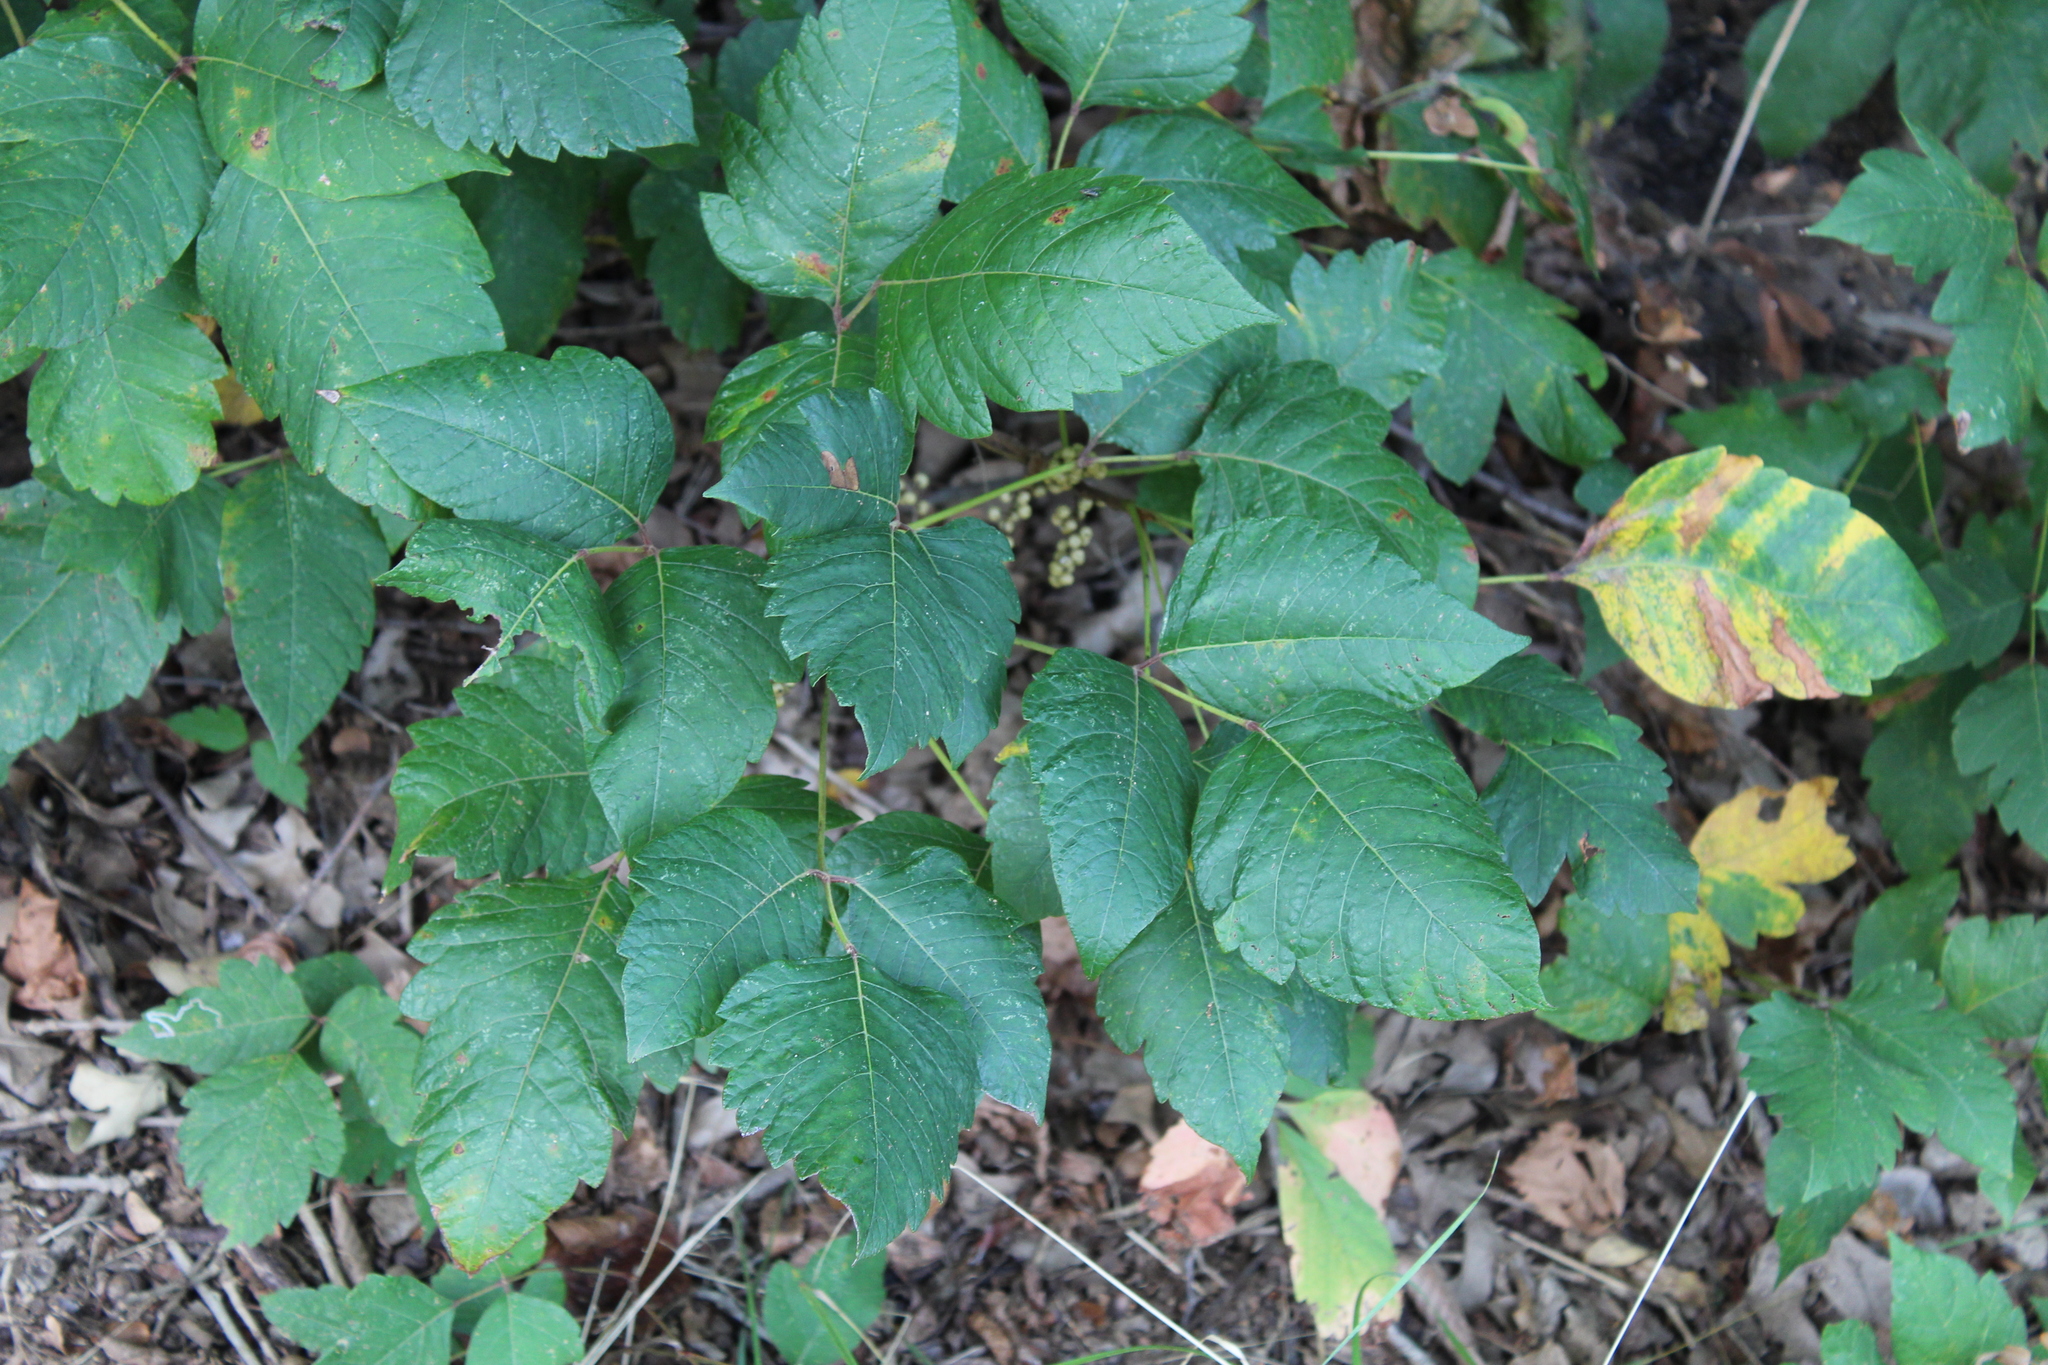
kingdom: Plantae
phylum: Tracheophyta
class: Magnoliopsida
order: Sapindales
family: Anacardiaceae
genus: Toxicodendron
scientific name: Toxicodendron radicans
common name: Poison ivy
